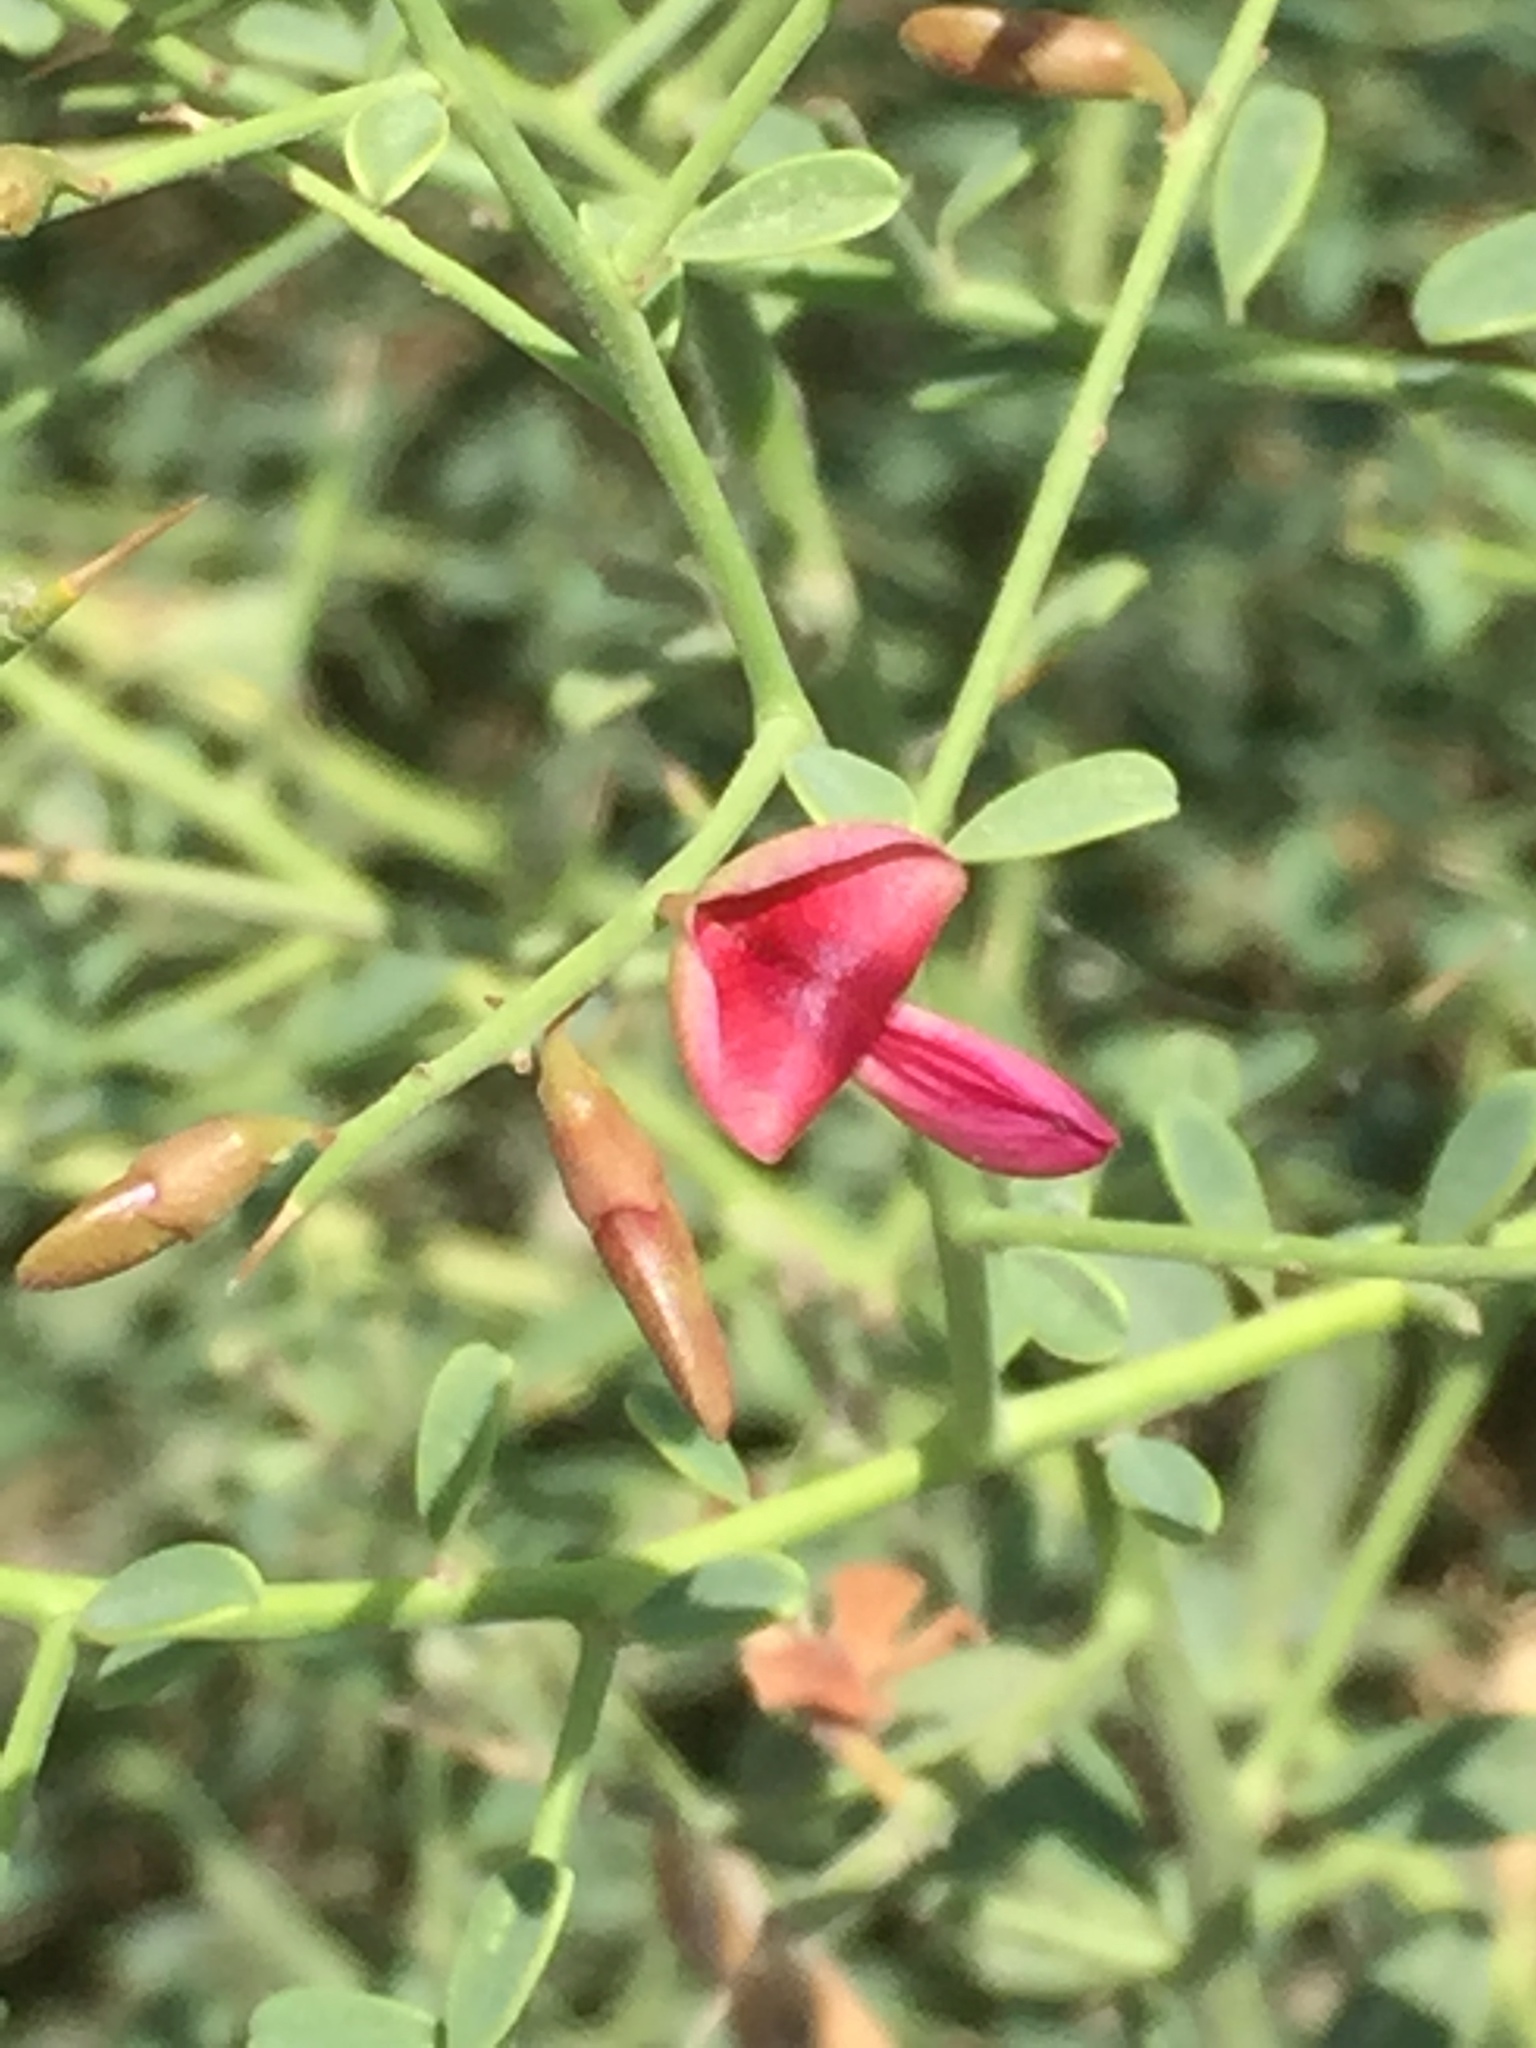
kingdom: Plantae
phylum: Tracheophyta
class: Magnoliopsida
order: Fabales
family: Fabaceae
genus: Alhagi
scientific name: Alhagi maurorum
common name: Camelthorn
